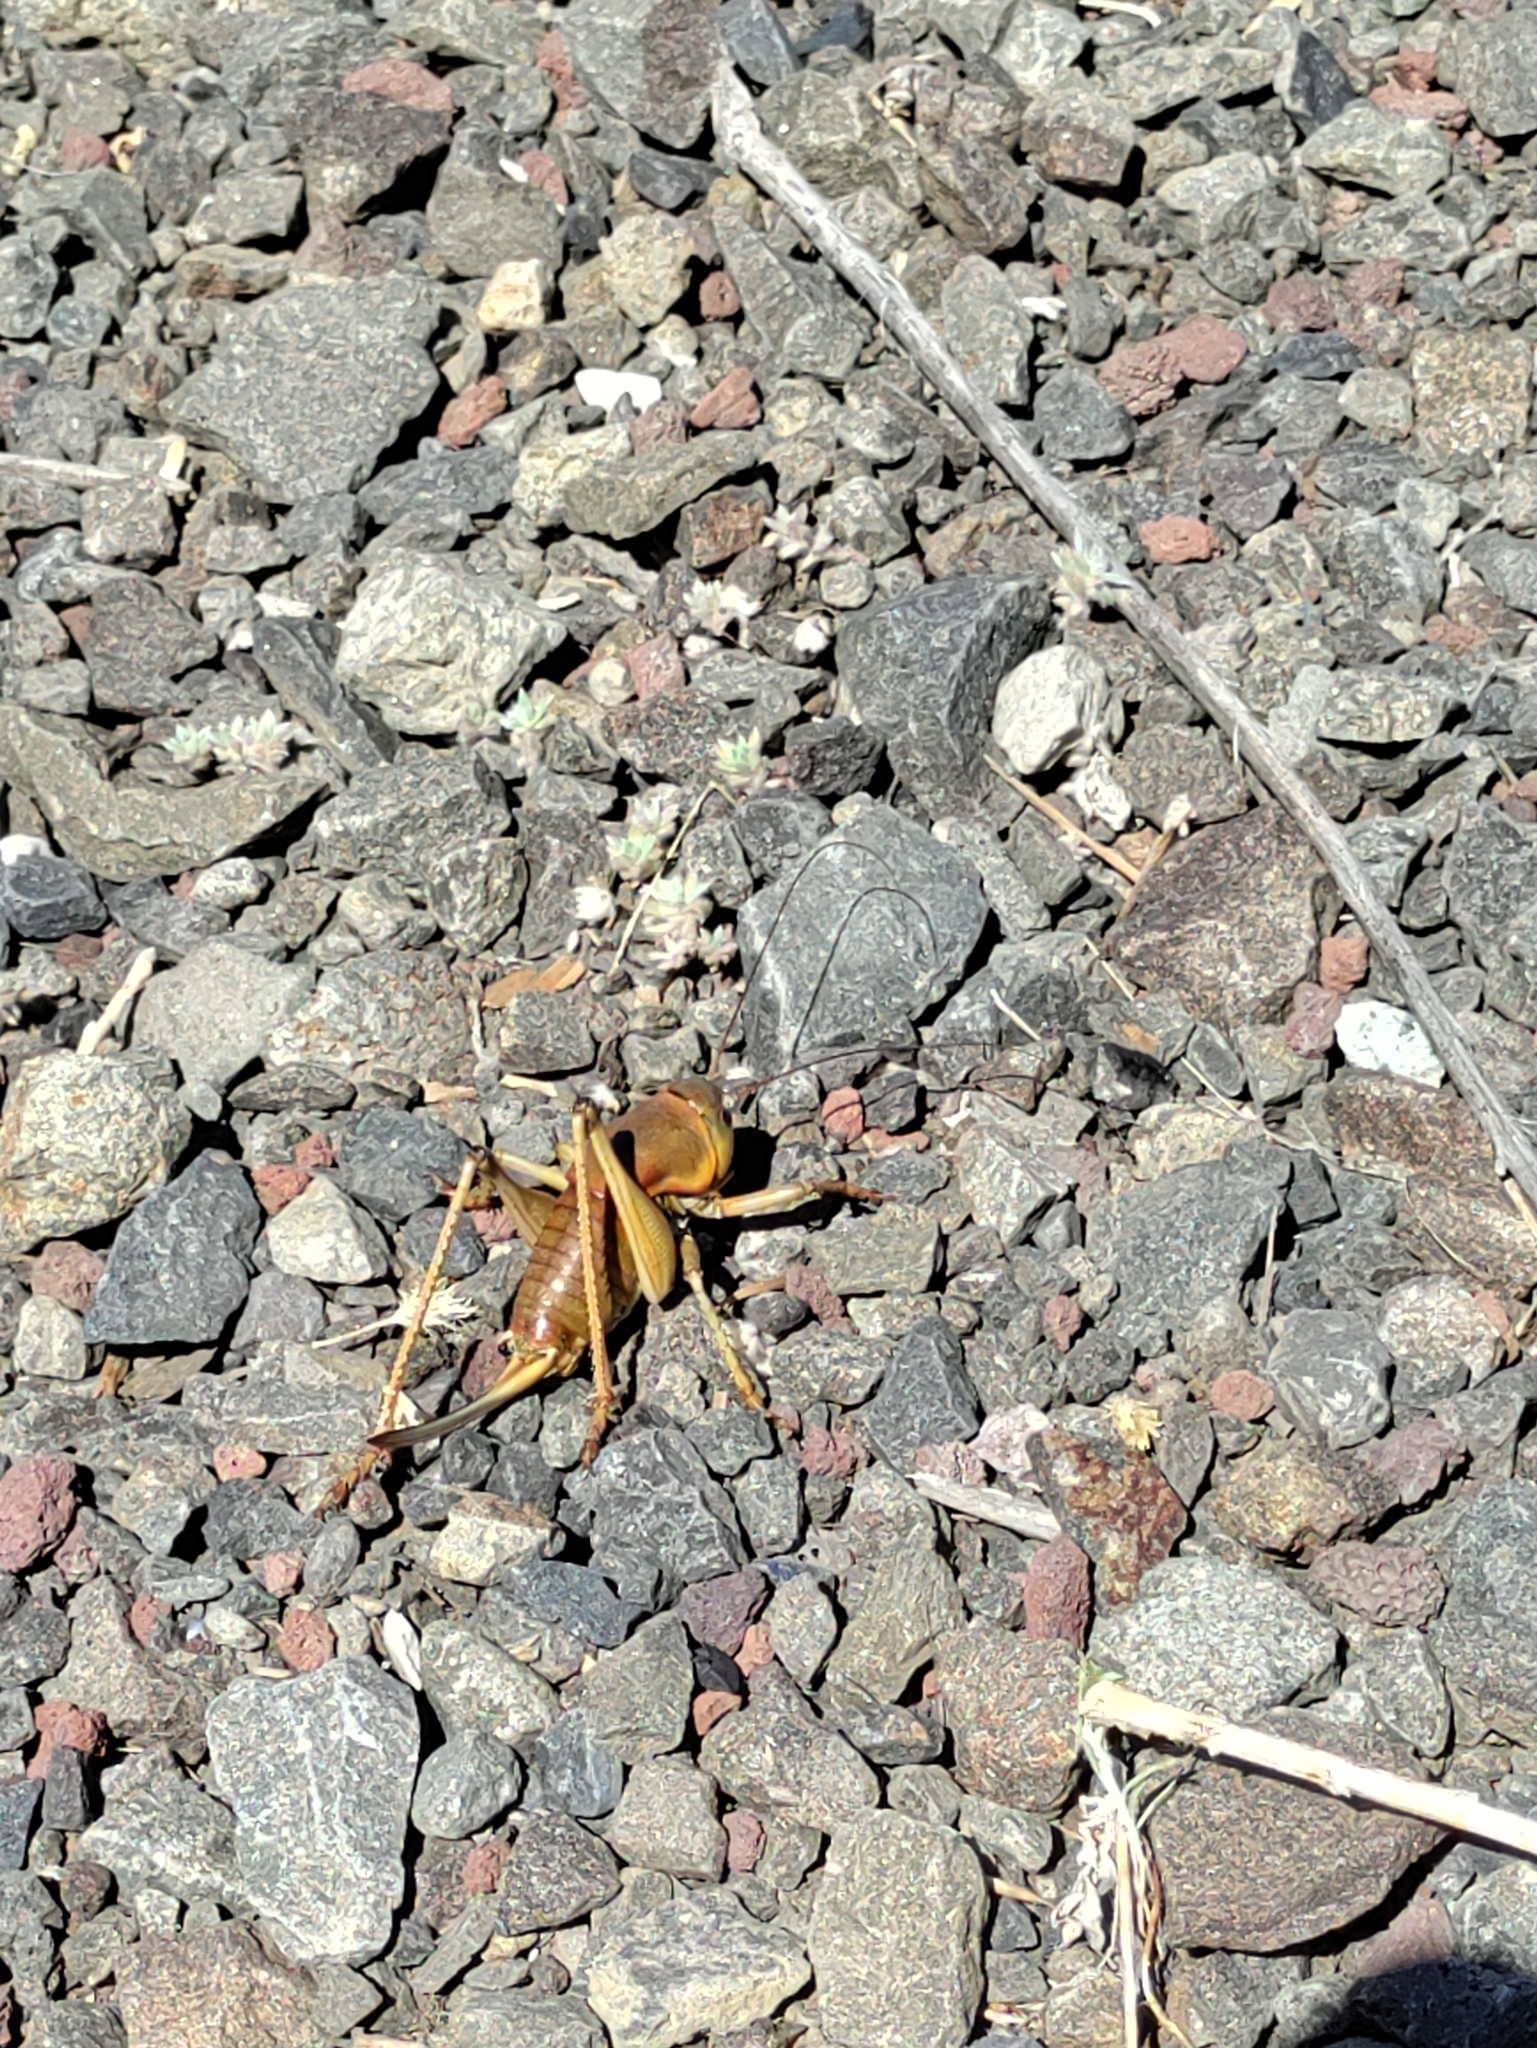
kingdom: Animalia
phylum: Arthropoda
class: Insecta
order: Orthoptera
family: Tettigoniidae
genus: Anabrus
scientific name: Anabrus simplex
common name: Mormon cricket
